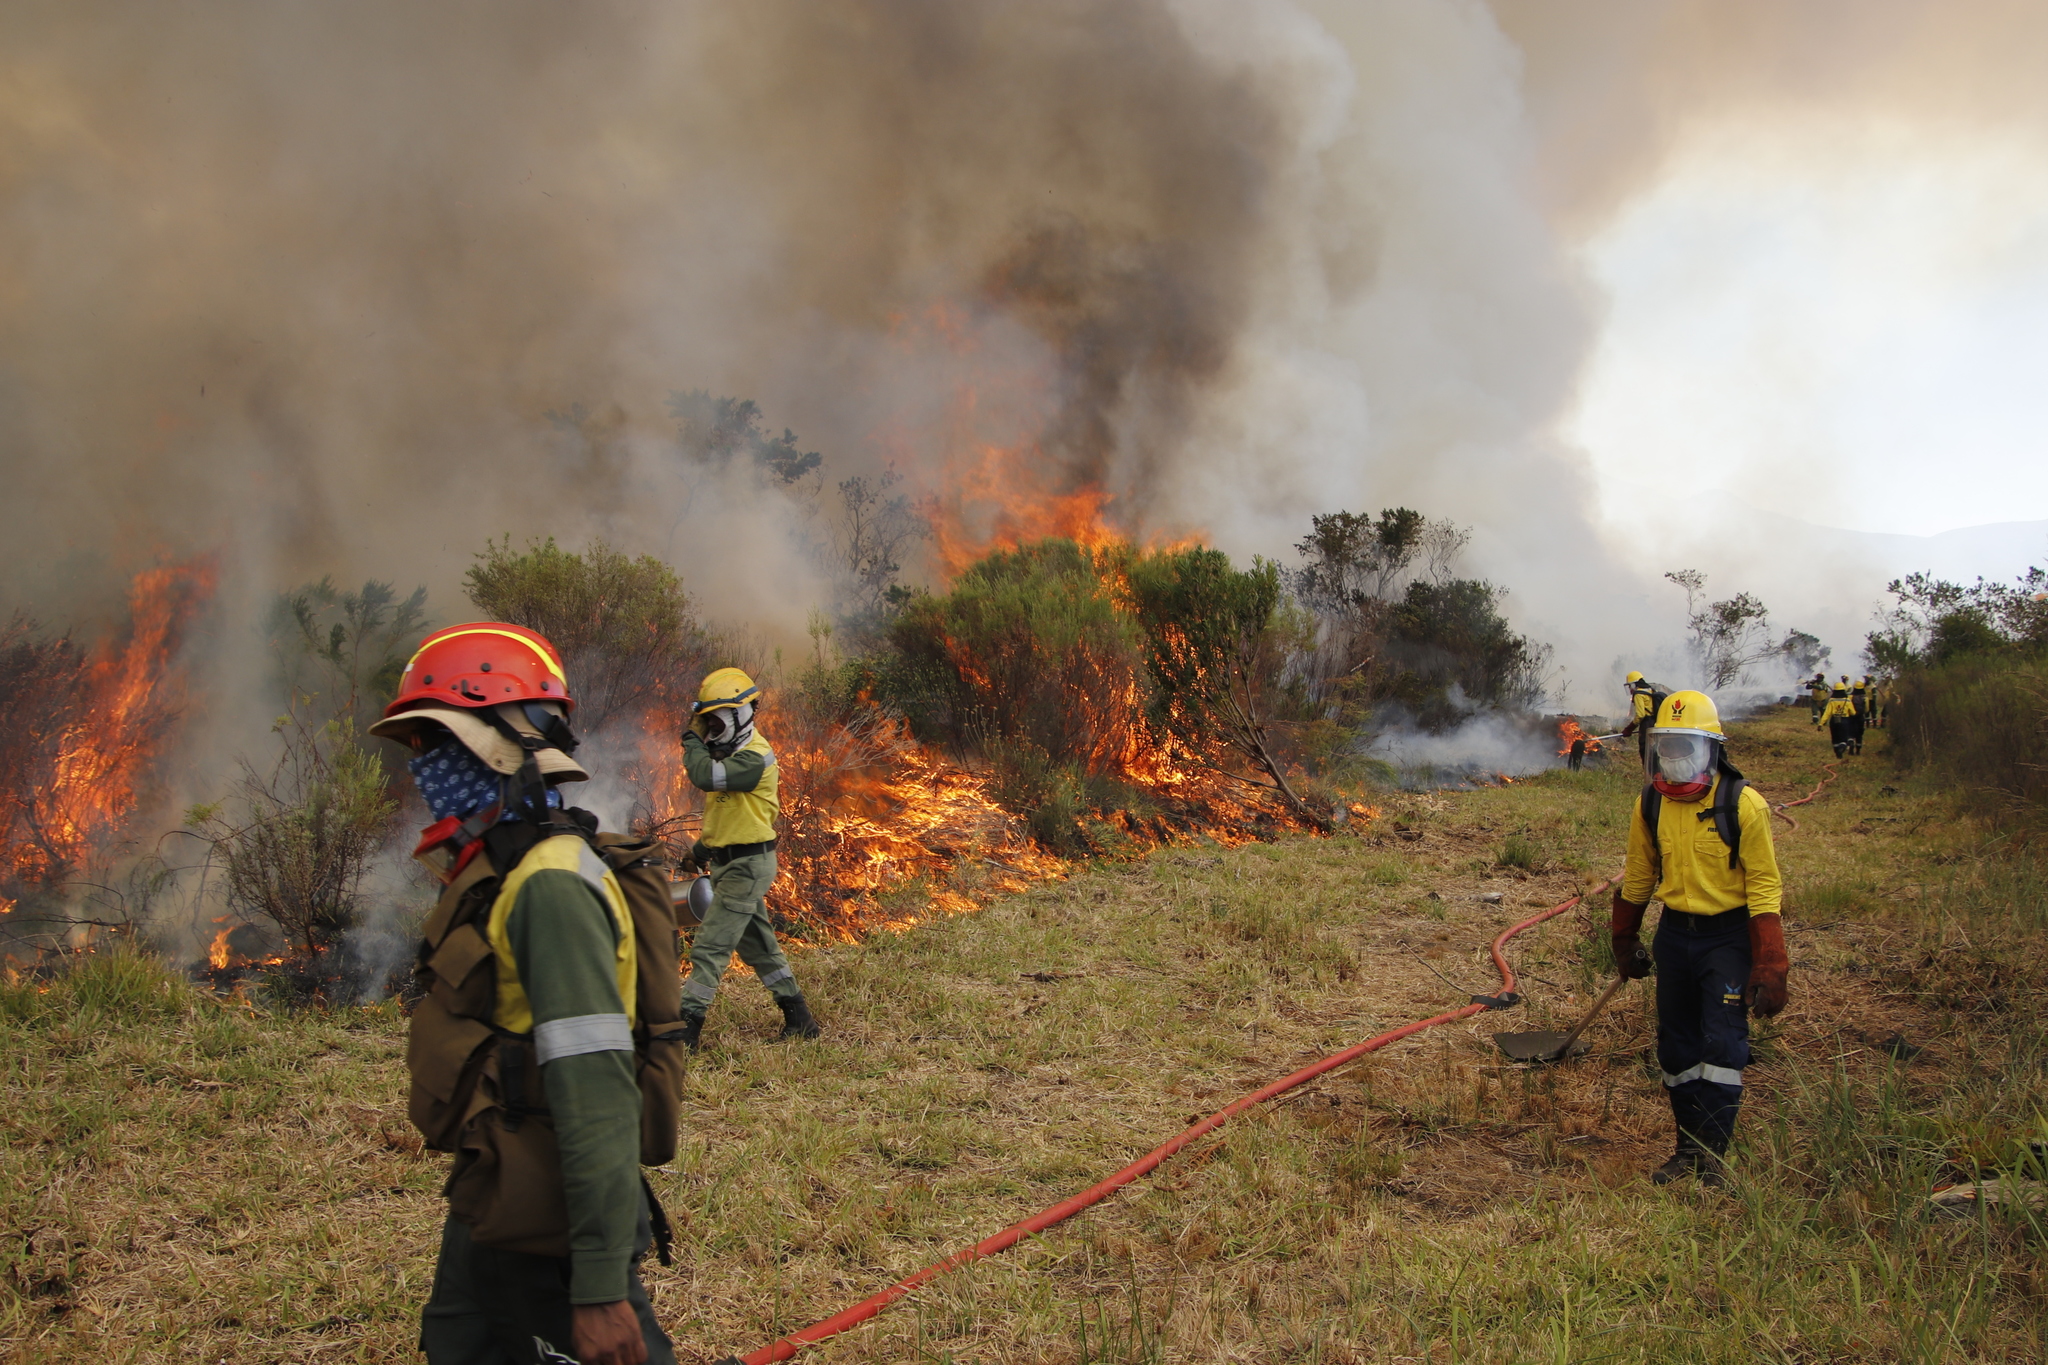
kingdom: Plantae
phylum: Tracheophyta
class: Magnoliopsida
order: Malvales
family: Thymelaeaceae
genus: Passerina
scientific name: Passerina corymbosa
